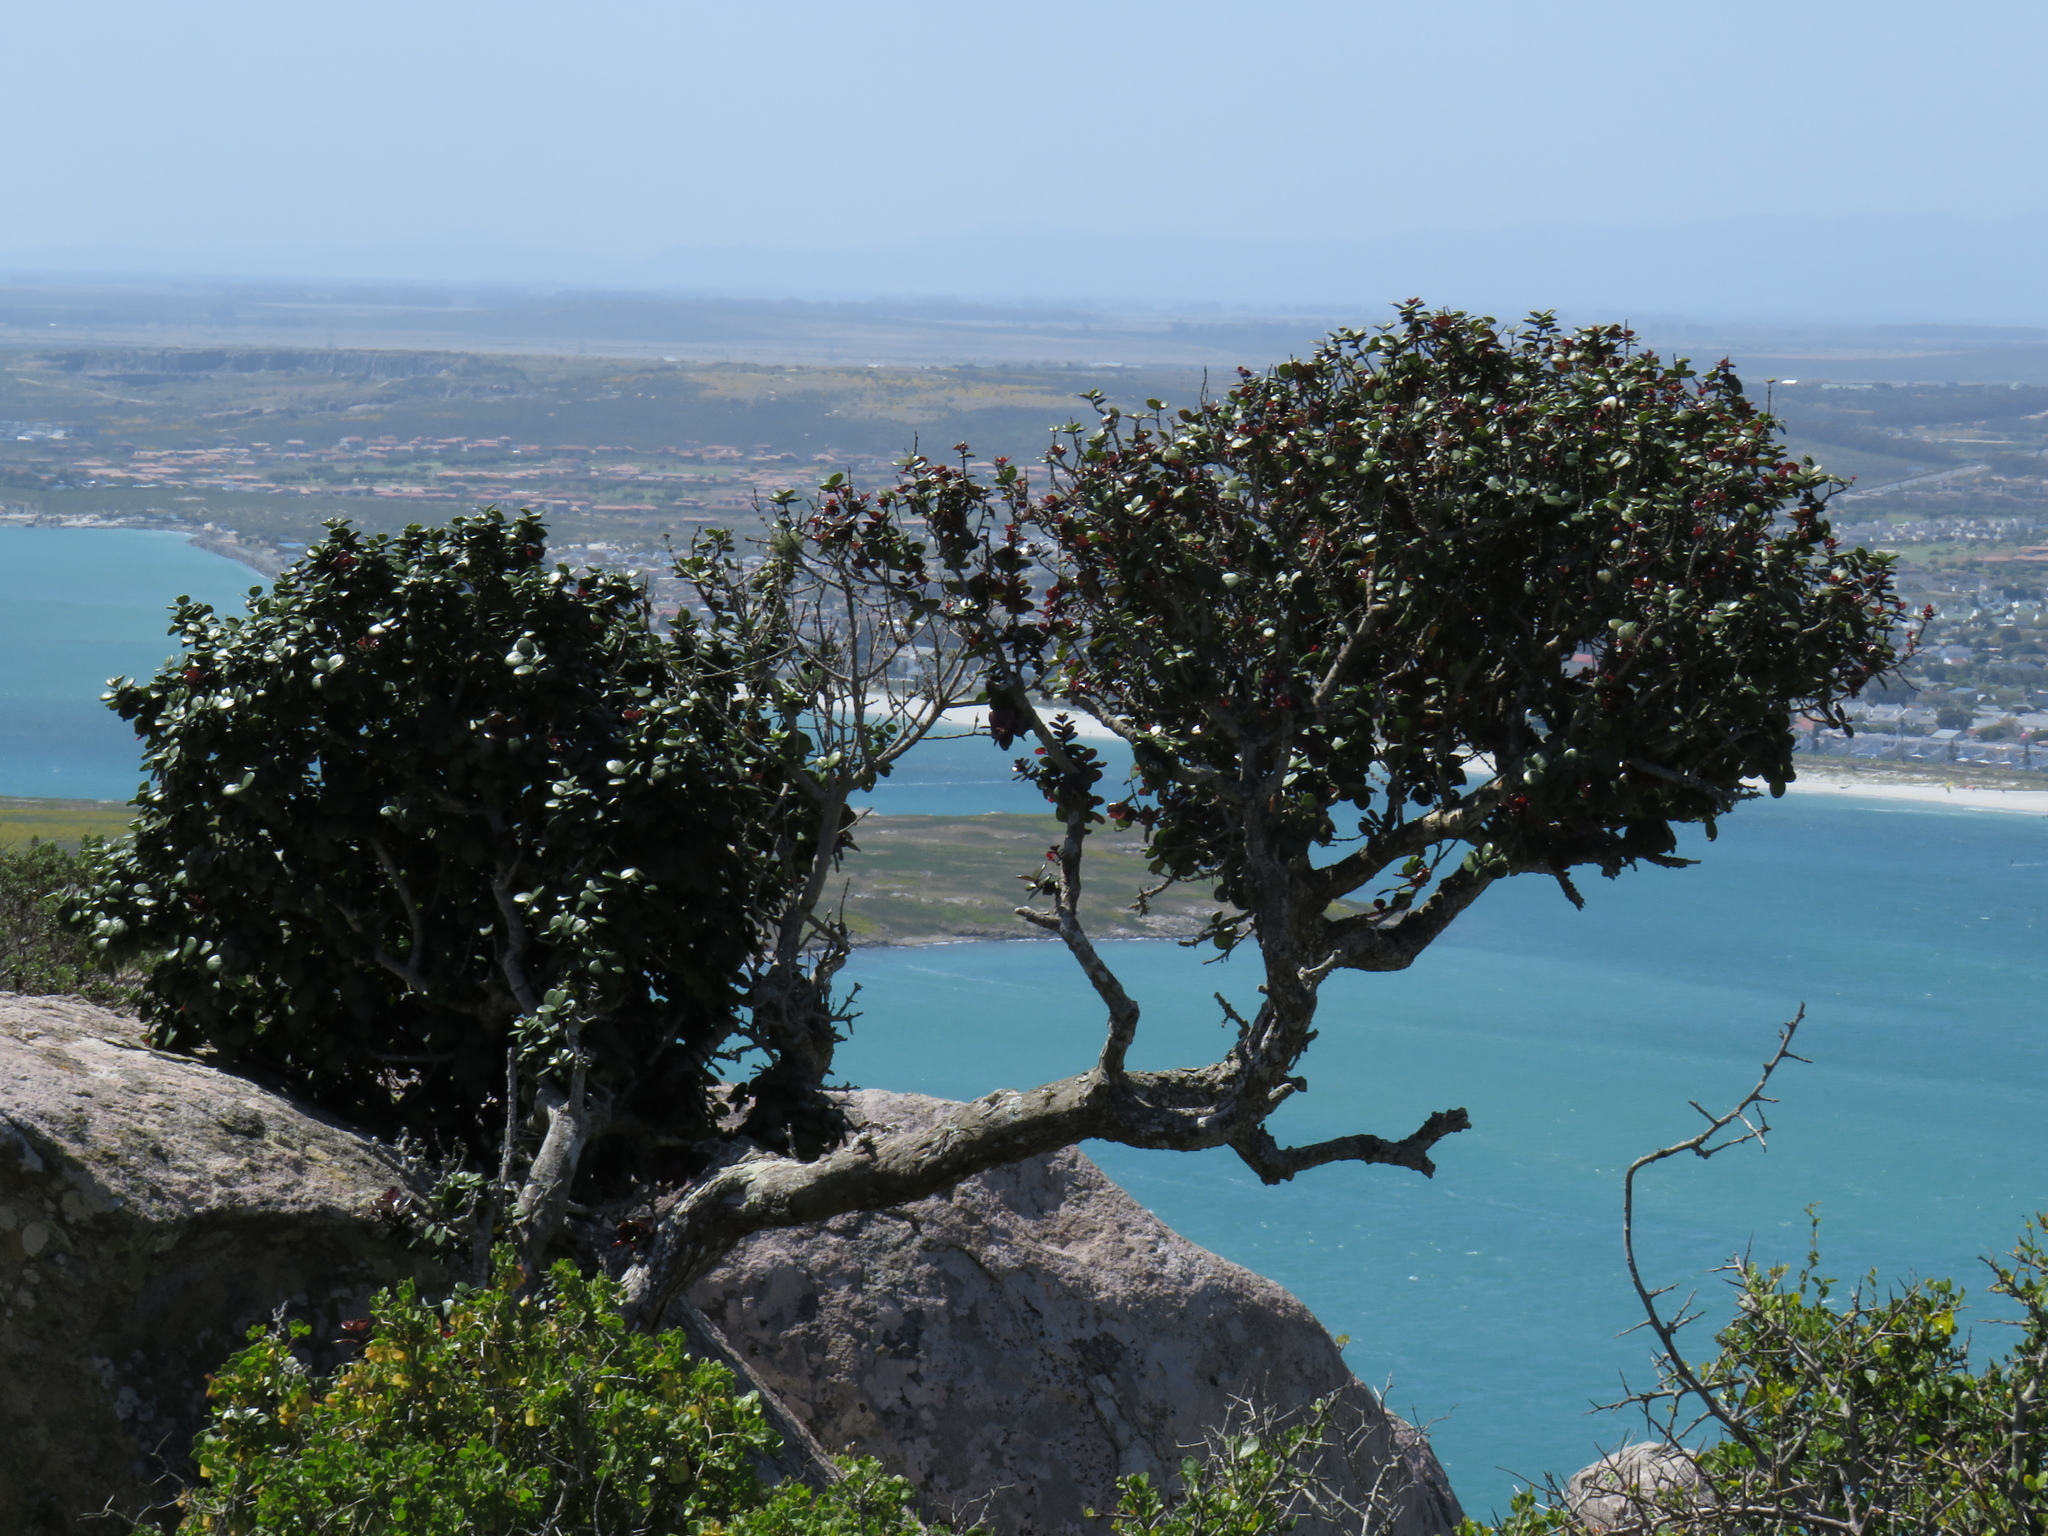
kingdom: Plantae
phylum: Tracheophyta
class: Magnoliopsida
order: Celastrales
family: Celastraceae
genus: Maurocenia
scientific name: Maurocenia frangula
